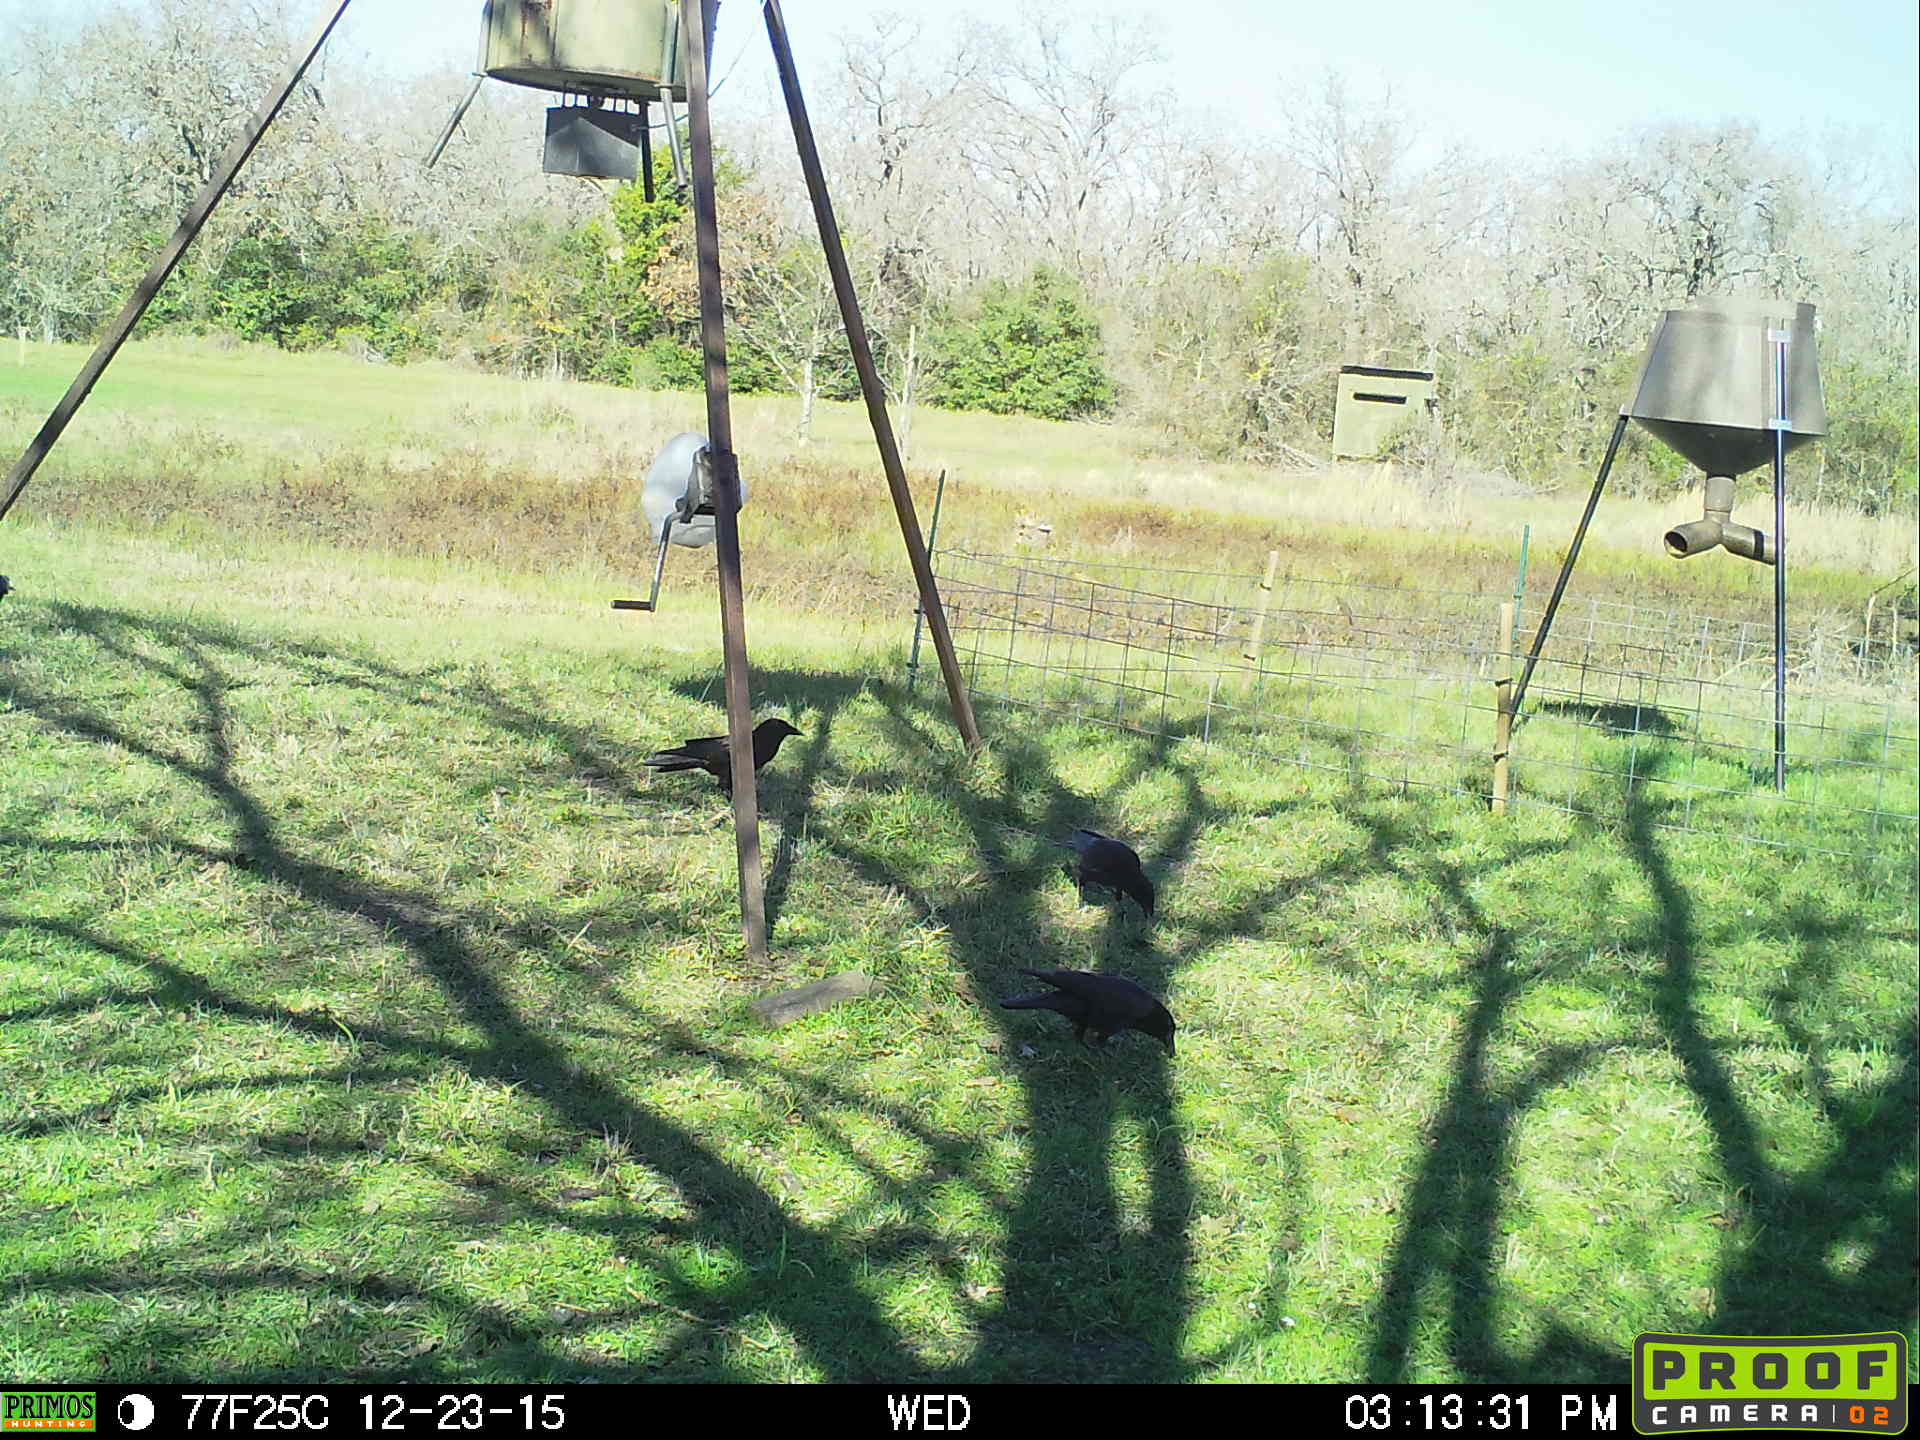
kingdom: Animalia
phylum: Chordata
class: Aves
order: Passeriformes
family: Corvidae
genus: Corvus
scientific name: Corvus brachyrhynchos
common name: American crow
